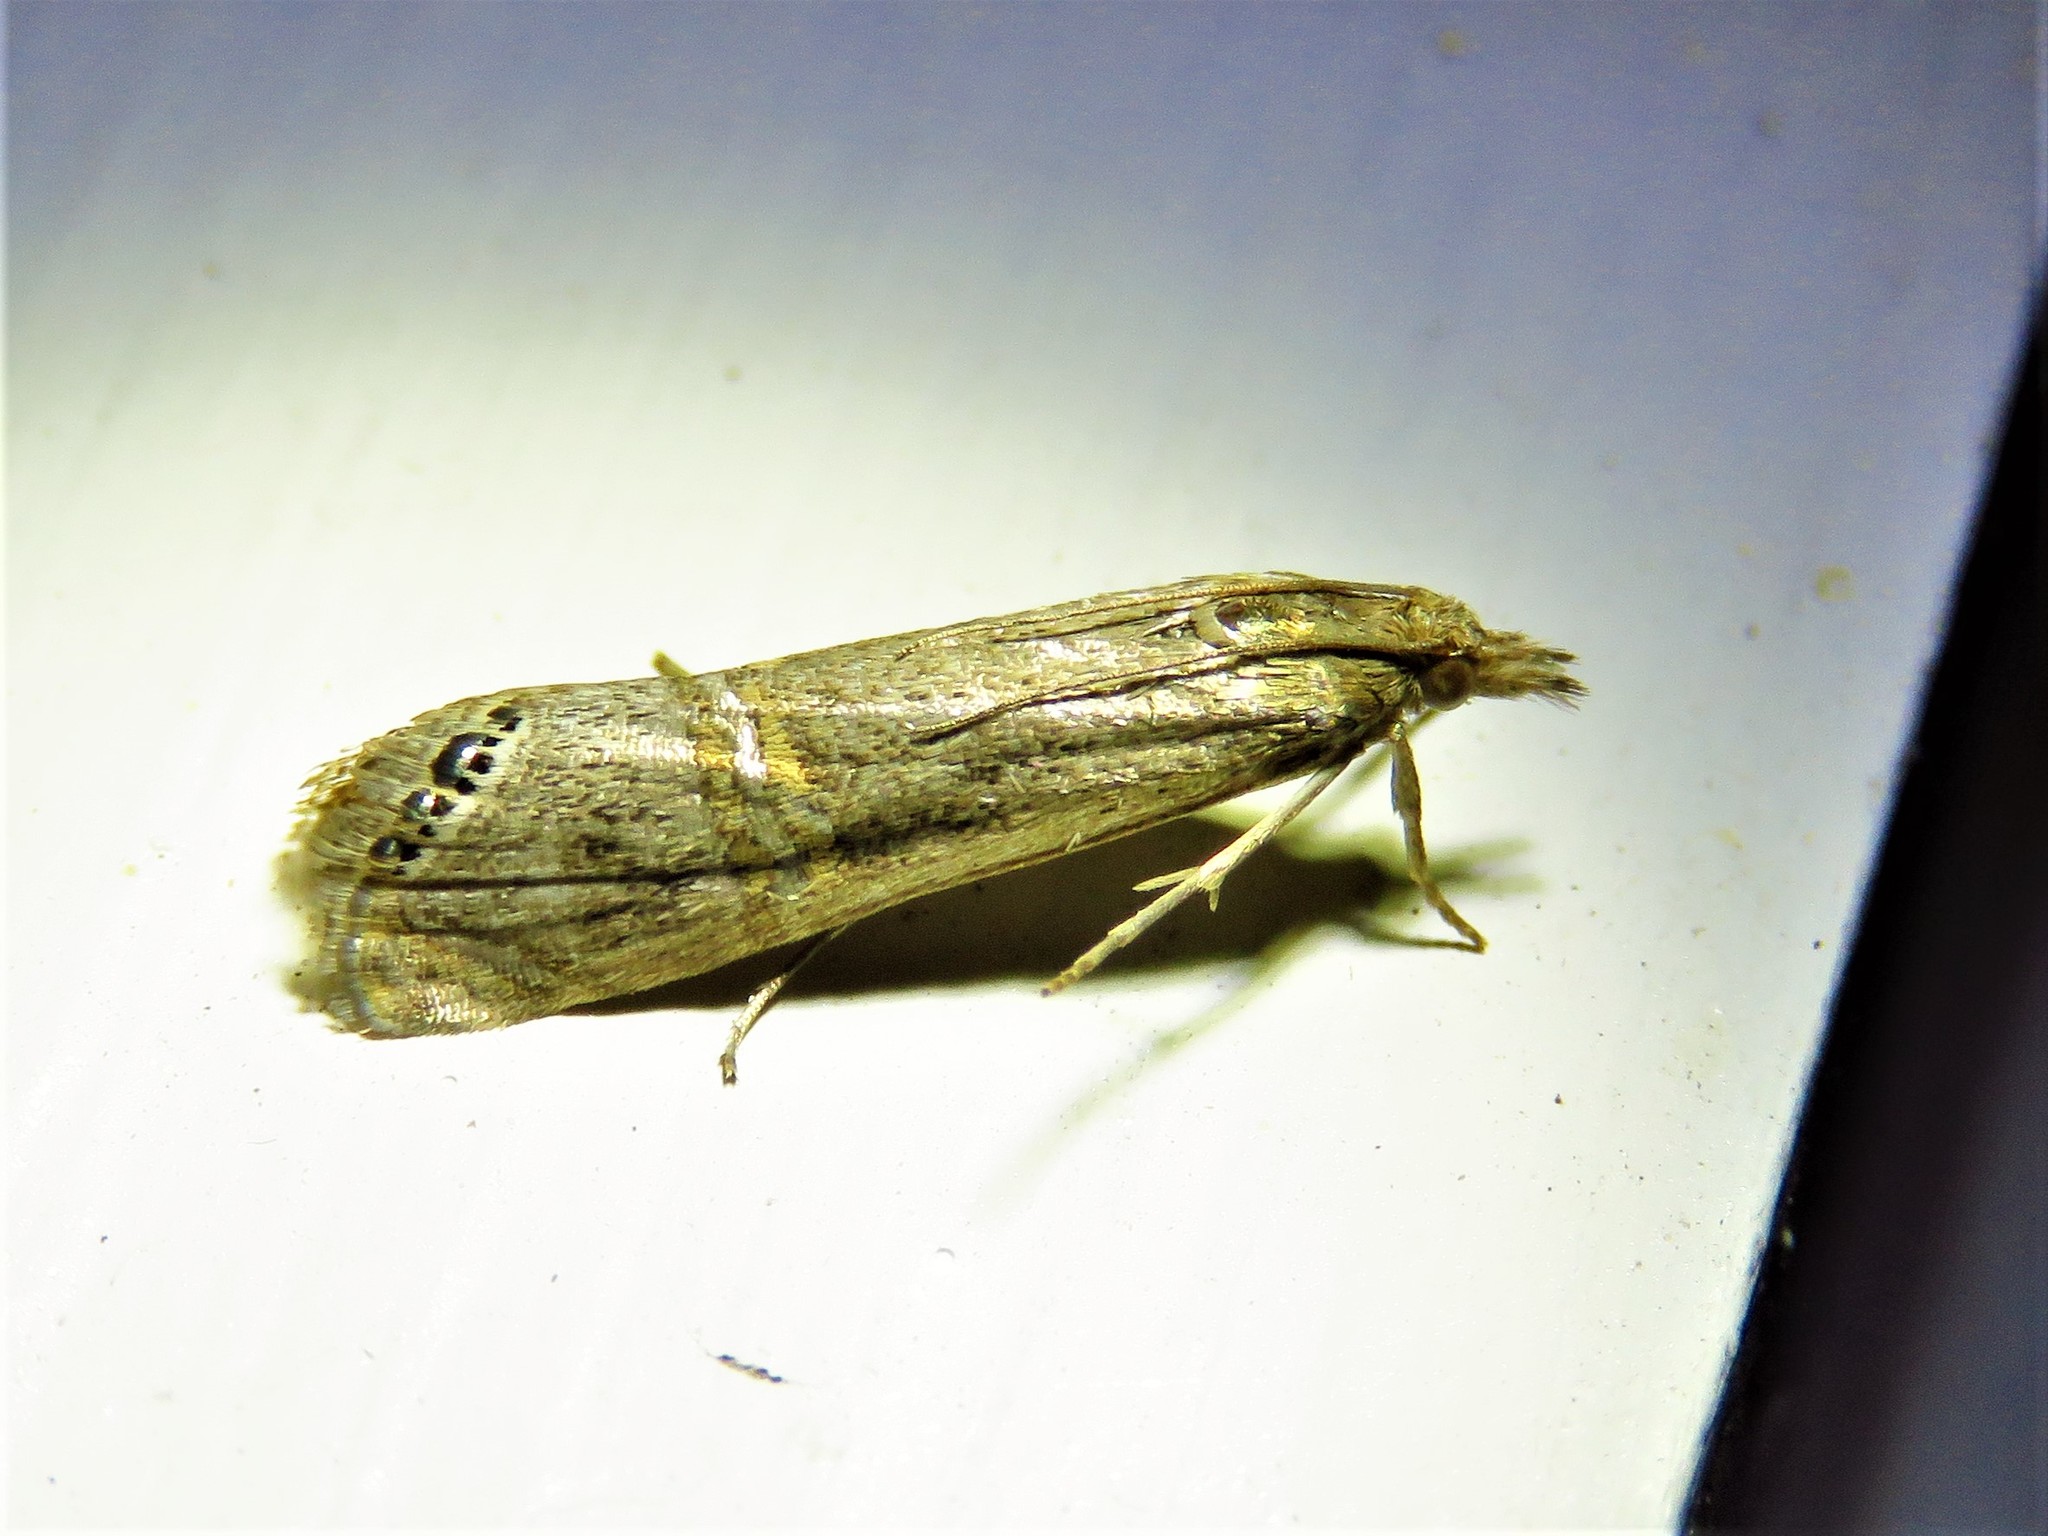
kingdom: Animalia
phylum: Arthropoda
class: Insecta
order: Lepidoptera
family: Crambidae
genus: Euchromius
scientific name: Euchromius ocellea
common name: Necklace veneer moth
